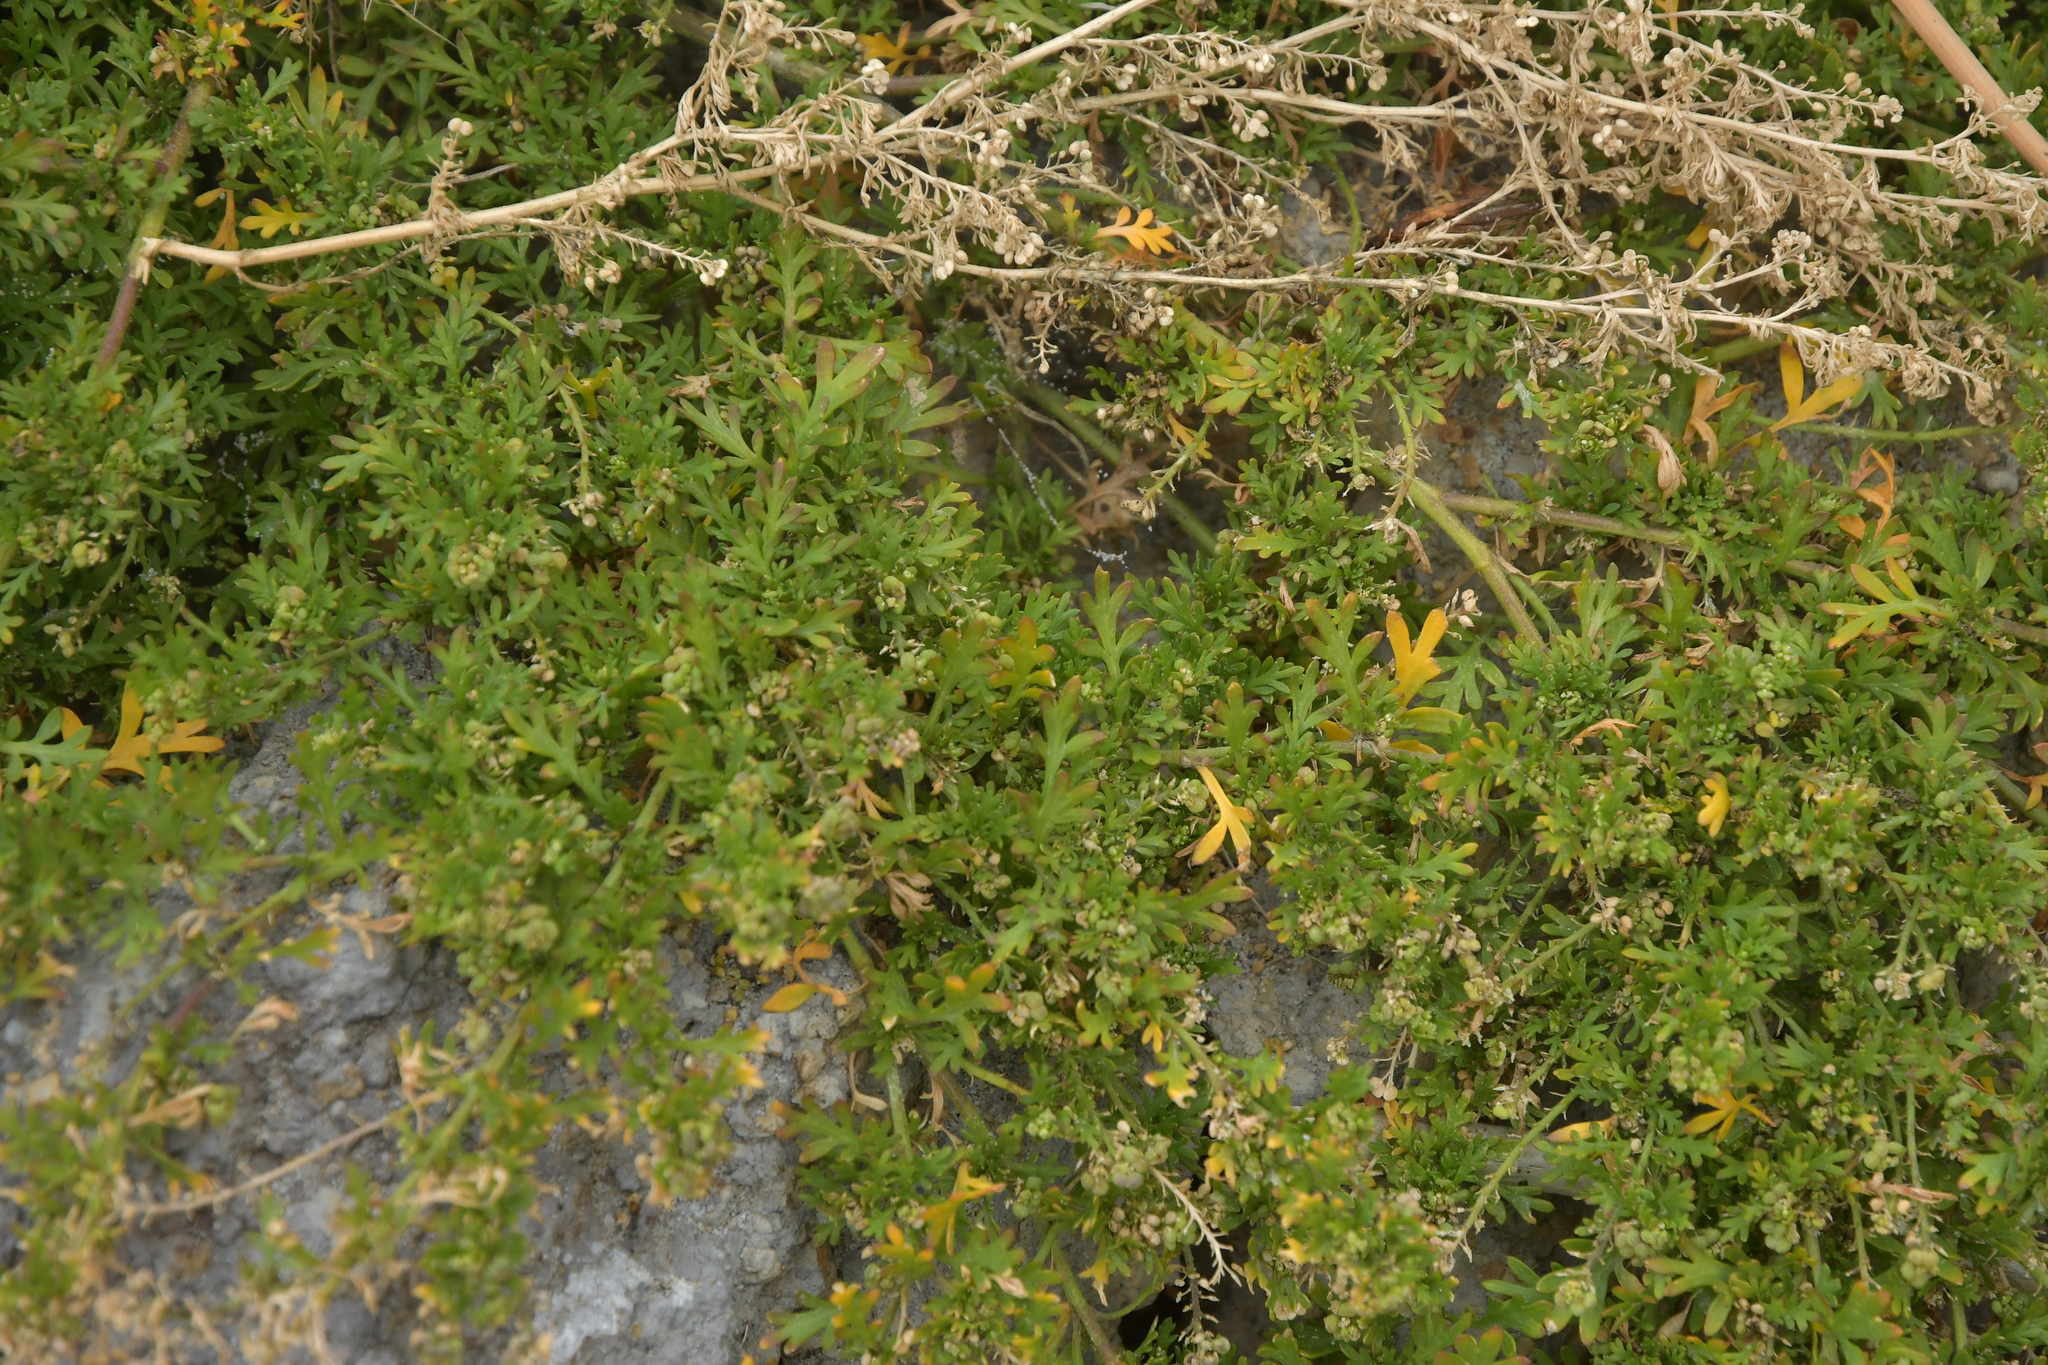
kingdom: Plantae
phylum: Tracheophyta
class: Magnoliopsida
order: Brassicales
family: Brassicaceae
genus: Lepidium
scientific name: Lepidium didymum
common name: Lesser swinecress
